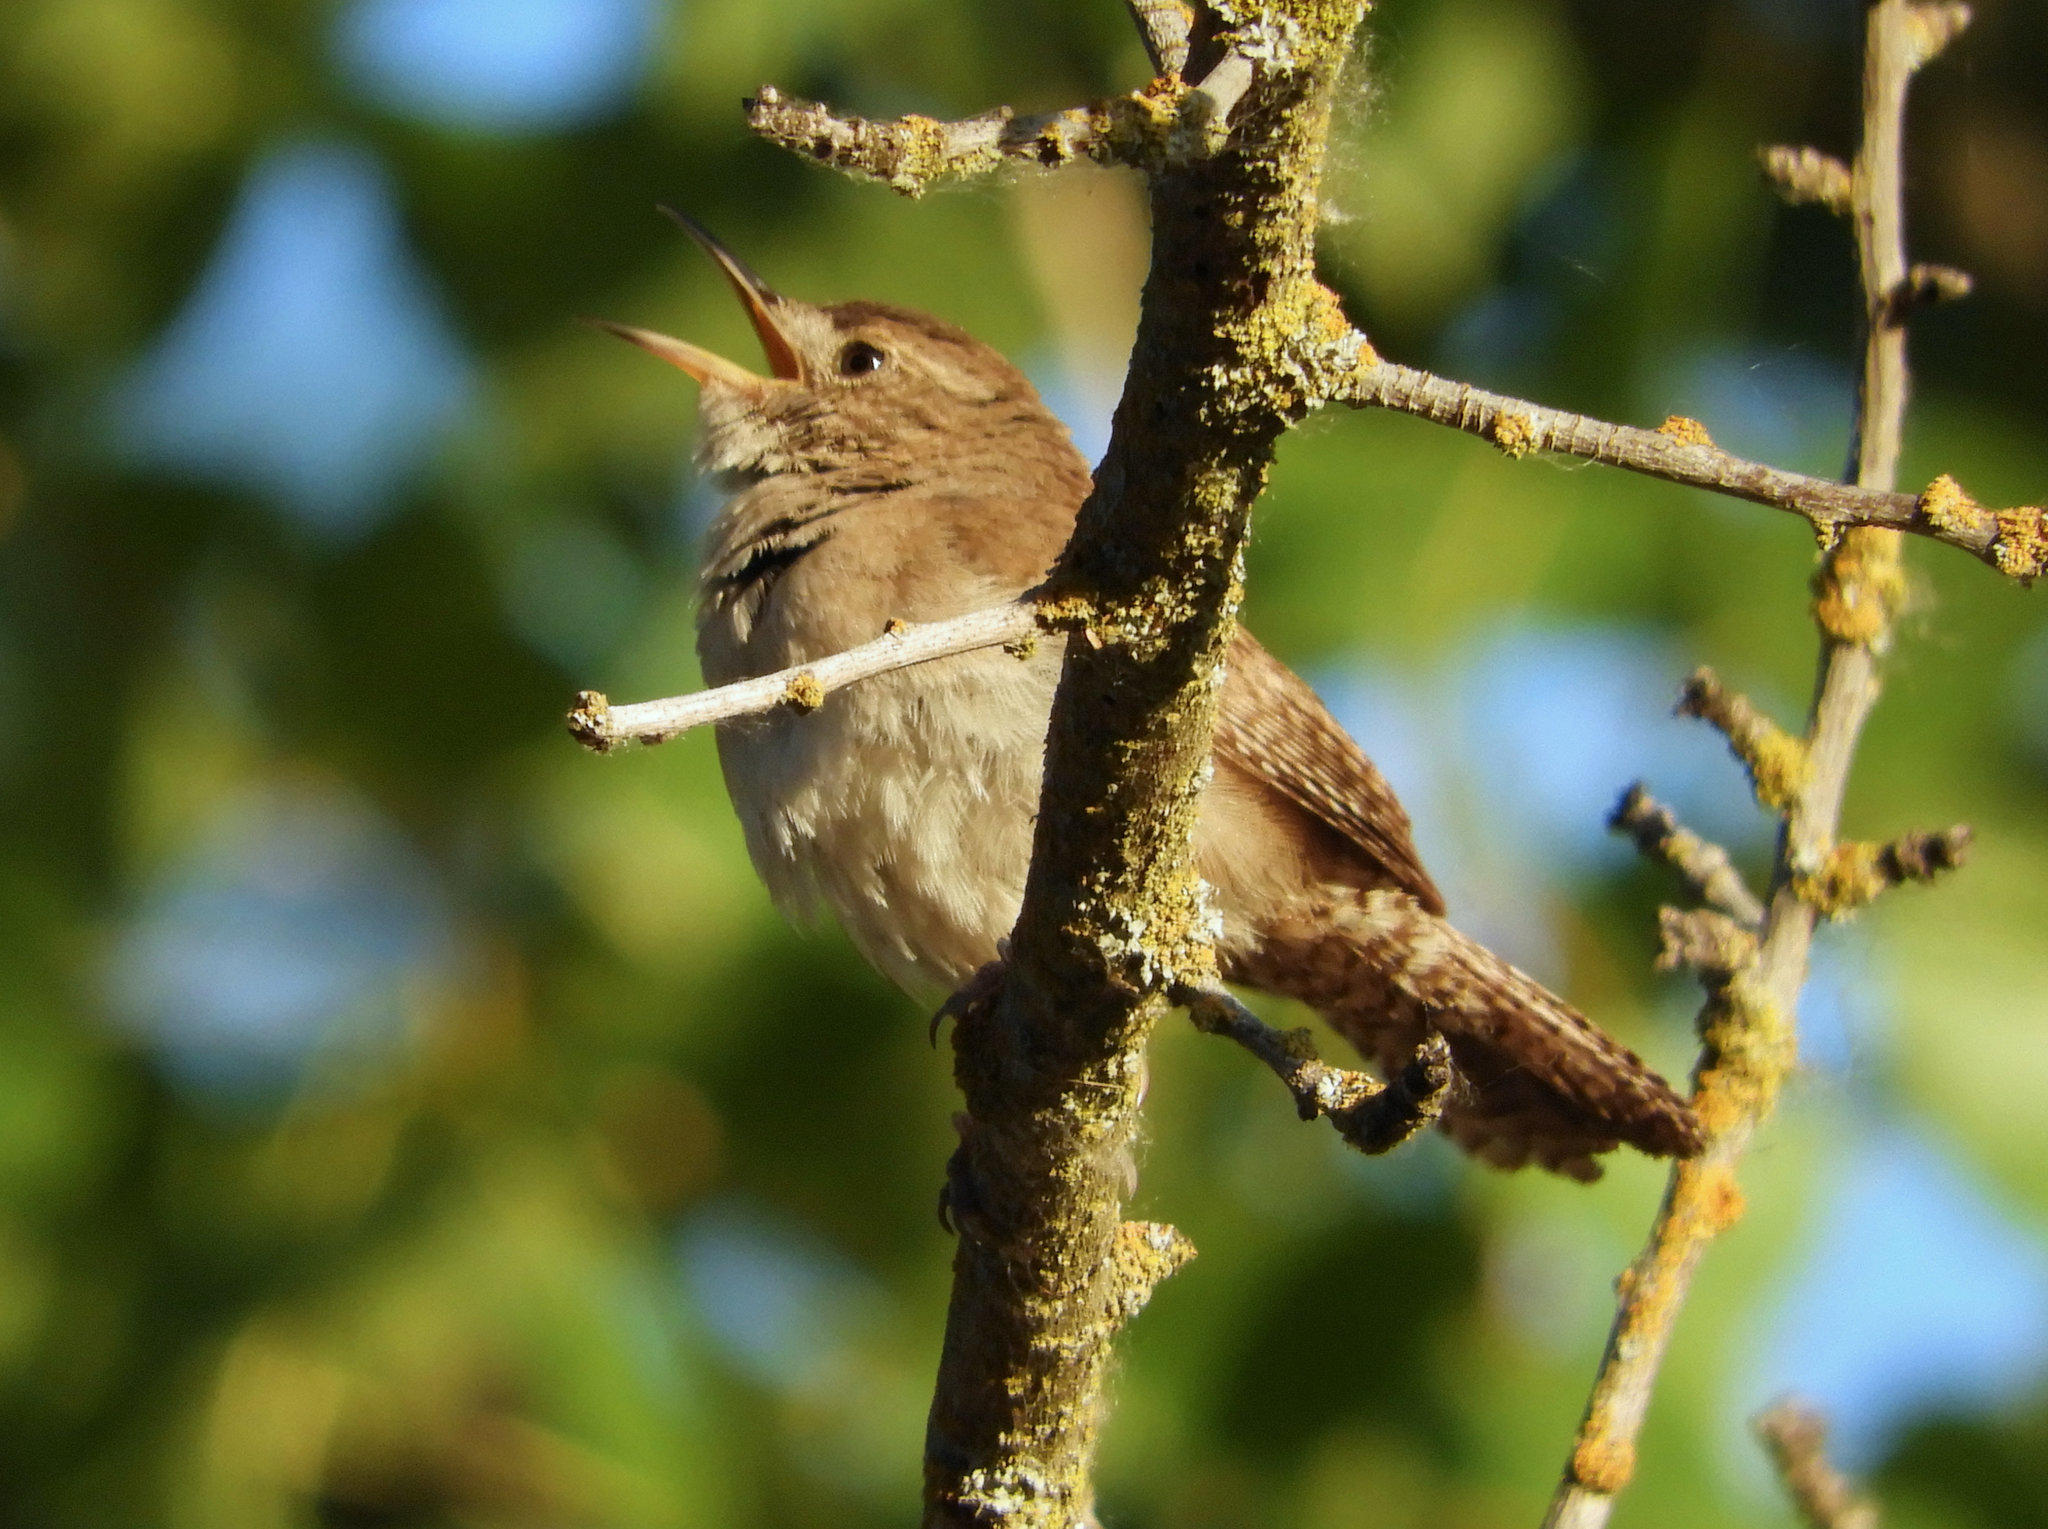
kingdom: Animalia
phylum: Chordata
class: Aves
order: Passeriformes
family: Troglodytidae
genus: Troglodytes
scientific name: Troglodytes aedon
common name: House wren
